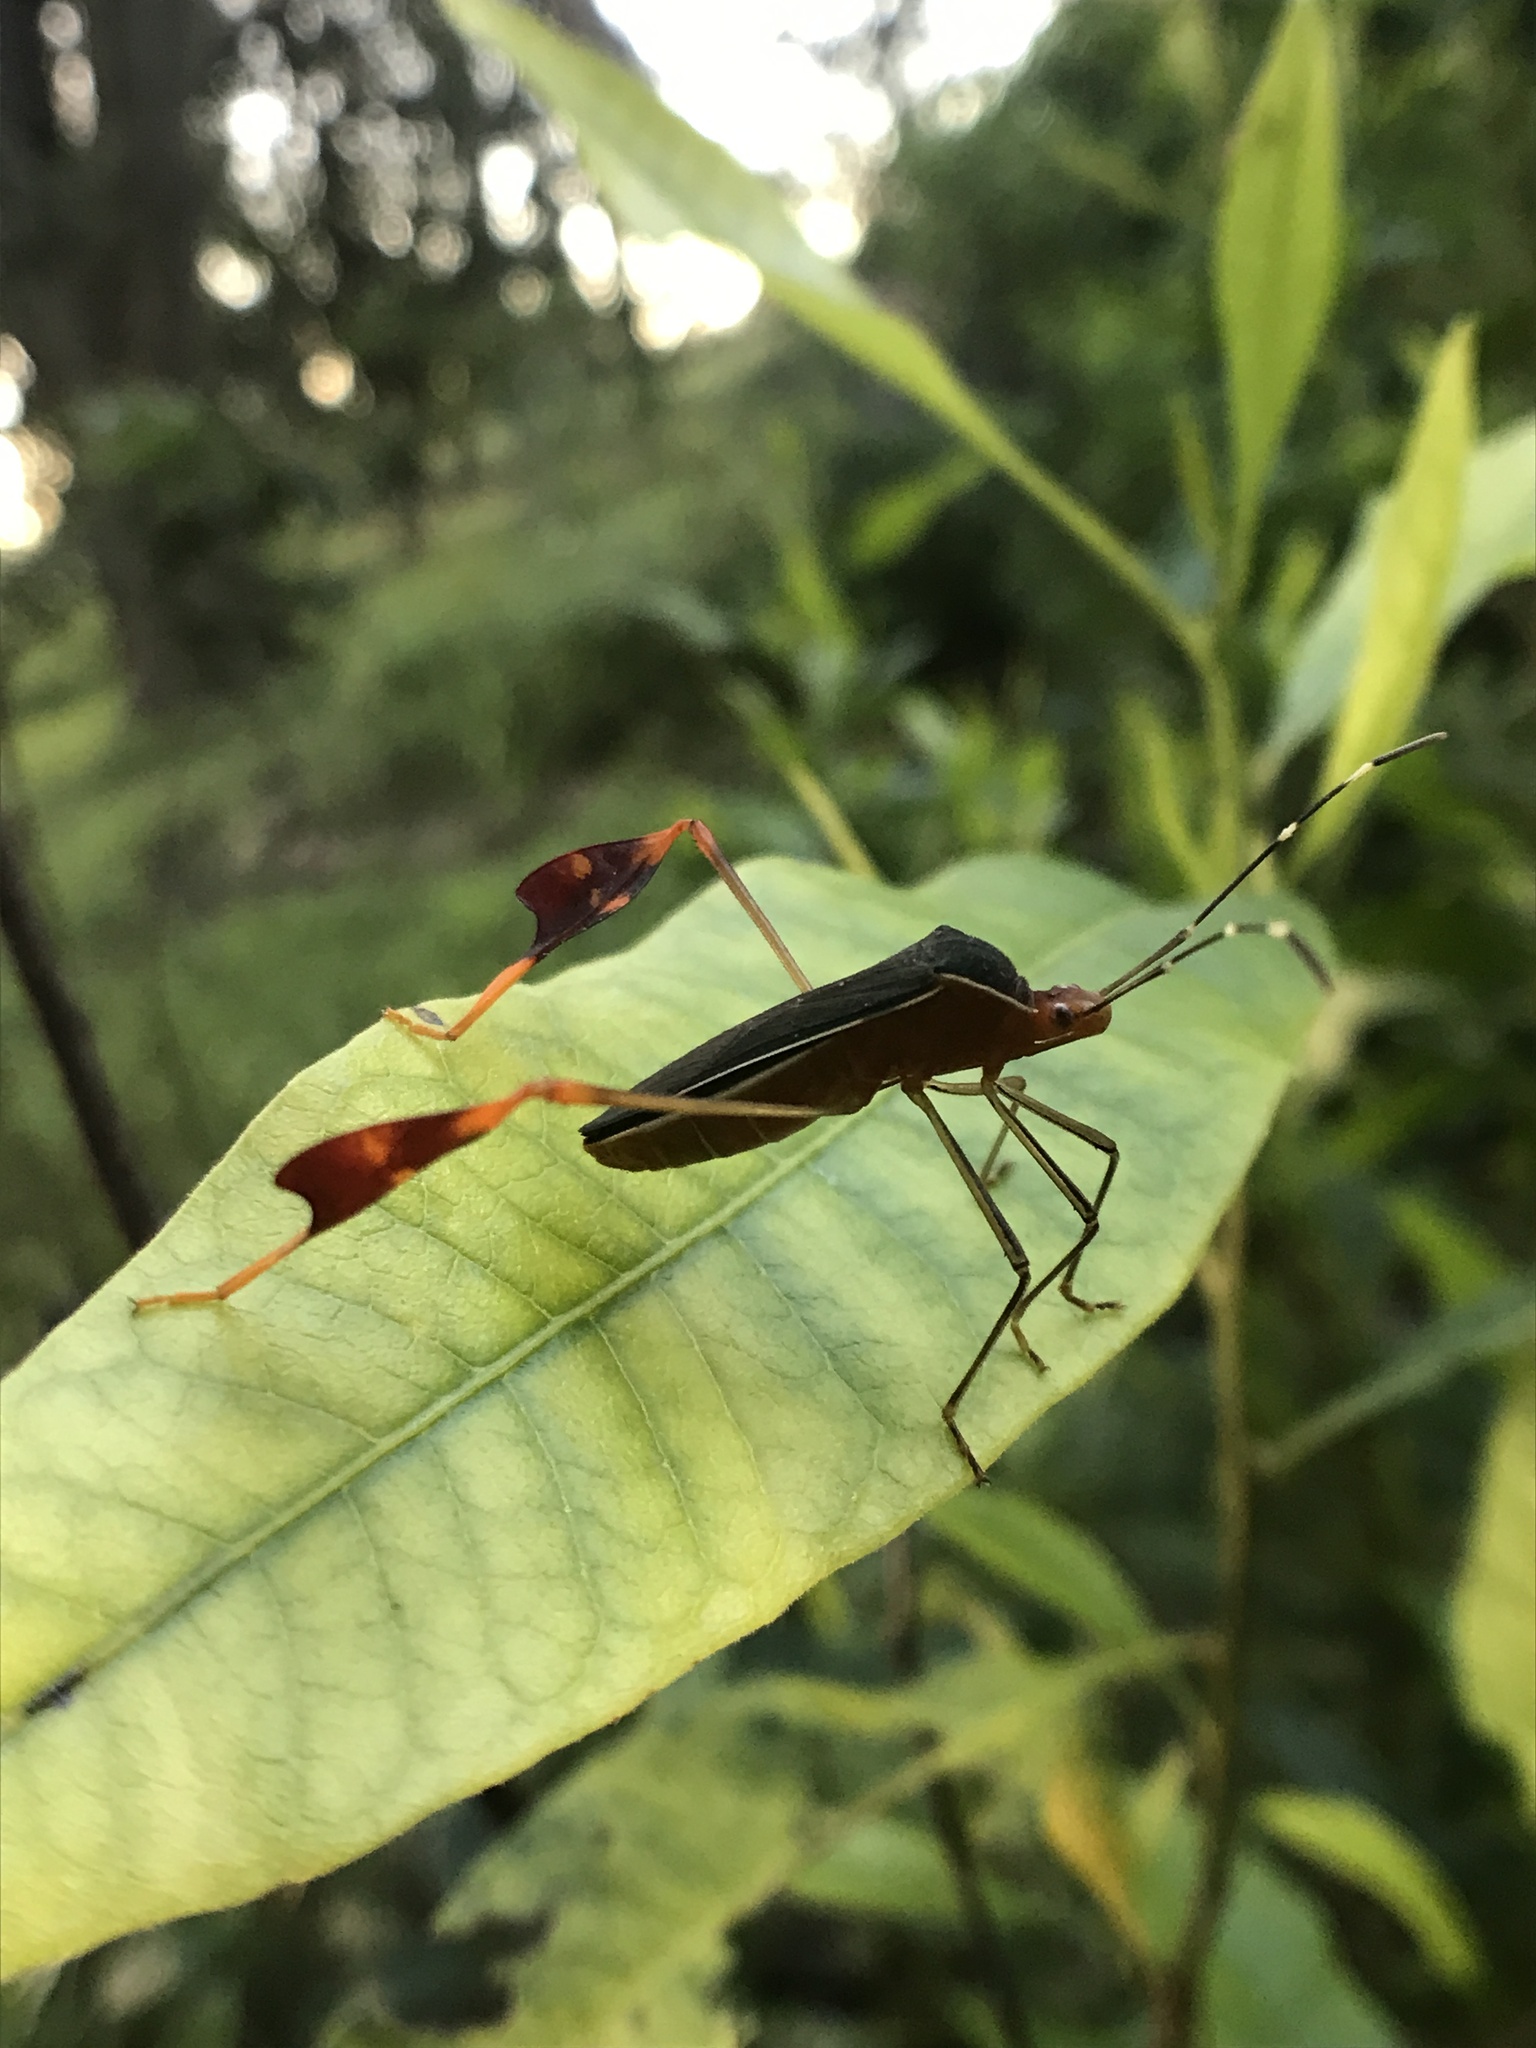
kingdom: Animalia
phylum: Arthropoda
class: Insecta
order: Hemiptera
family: Coreidae
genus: Anisoscelis
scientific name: Anisoscelis marginellus
